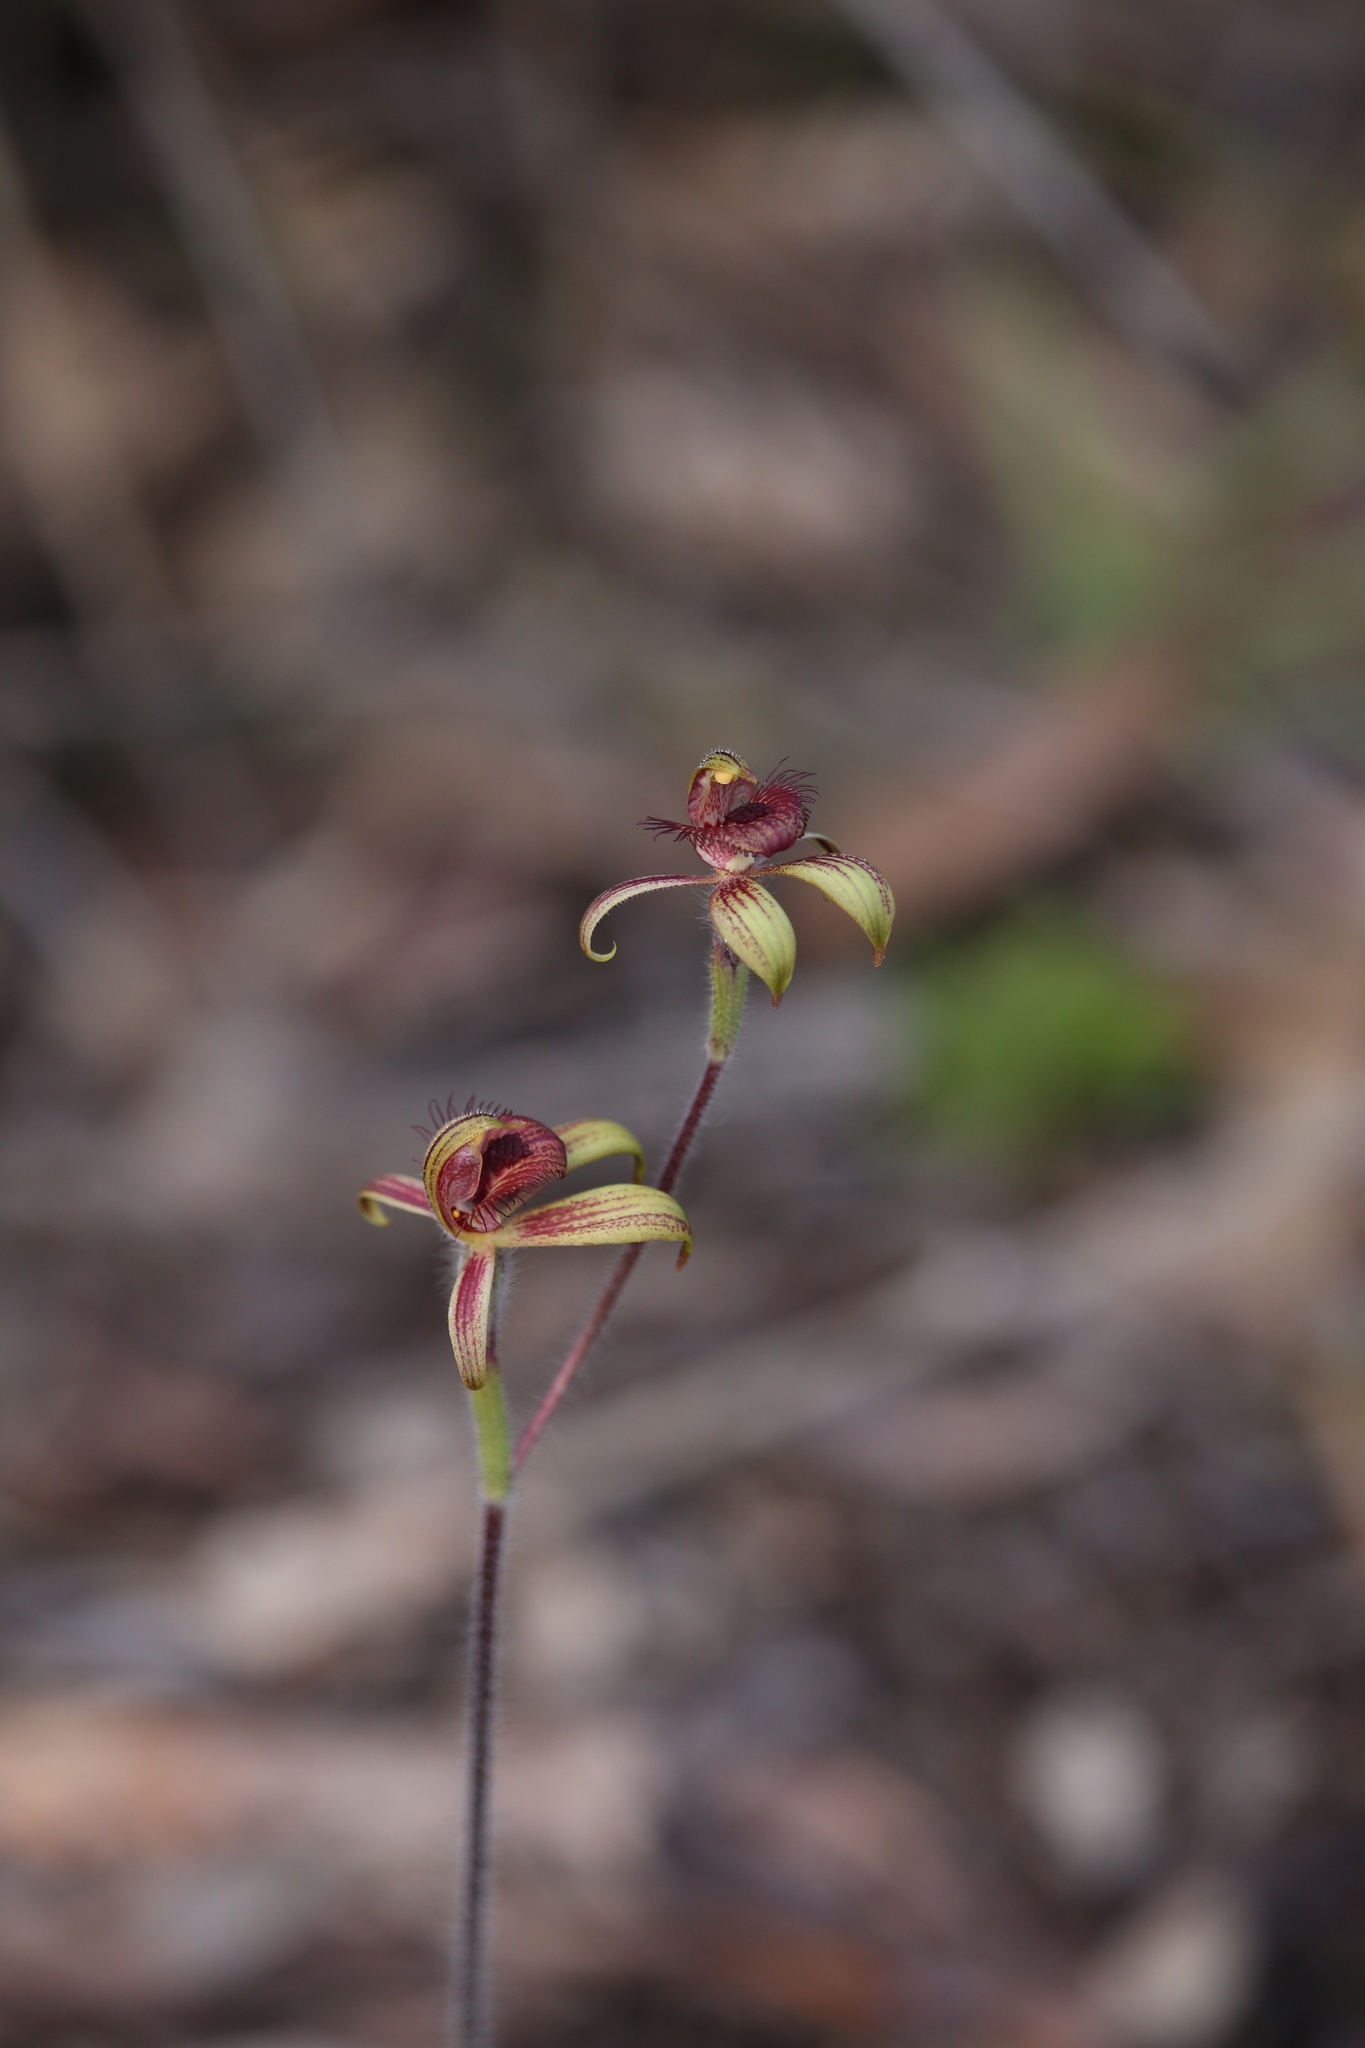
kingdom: Plantae
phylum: Tracheophyta
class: Liliopsida
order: Asparagales
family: Orchidaceae
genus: Caladenia
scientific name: Caladenia discoidea
